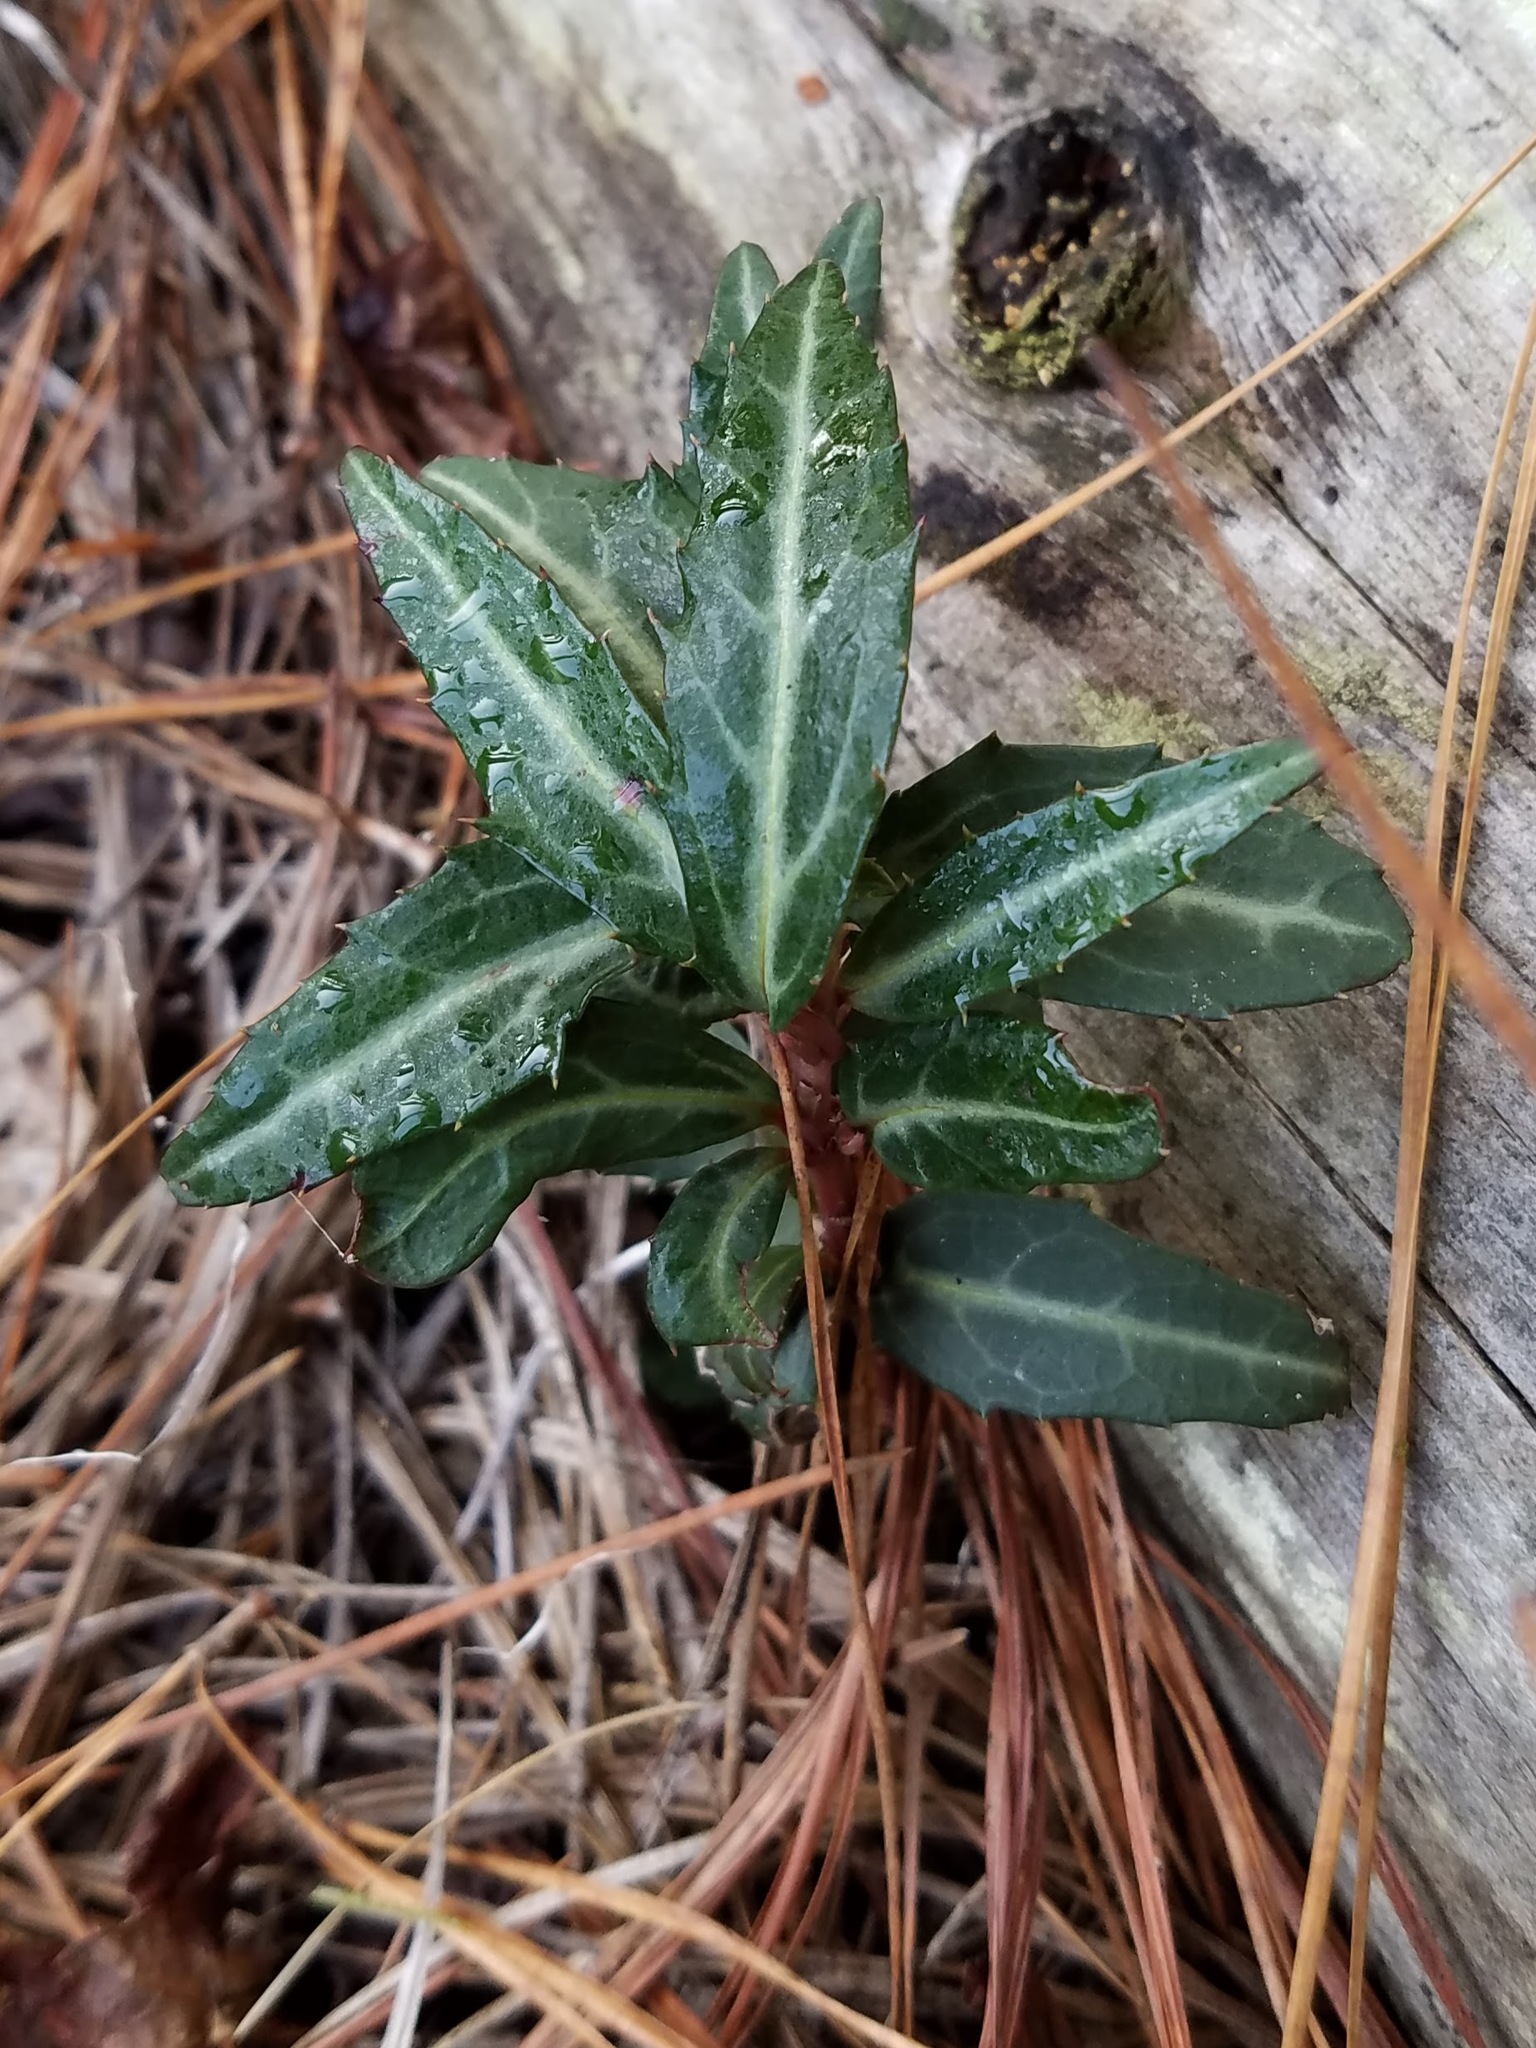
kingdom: Plantae
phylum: Tracheophyta
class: Magnoliopsida
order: Ericales
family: Ericaceae
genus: Chimaphila
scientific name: Chimaphila maculata
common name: Spotted pipsissewa
